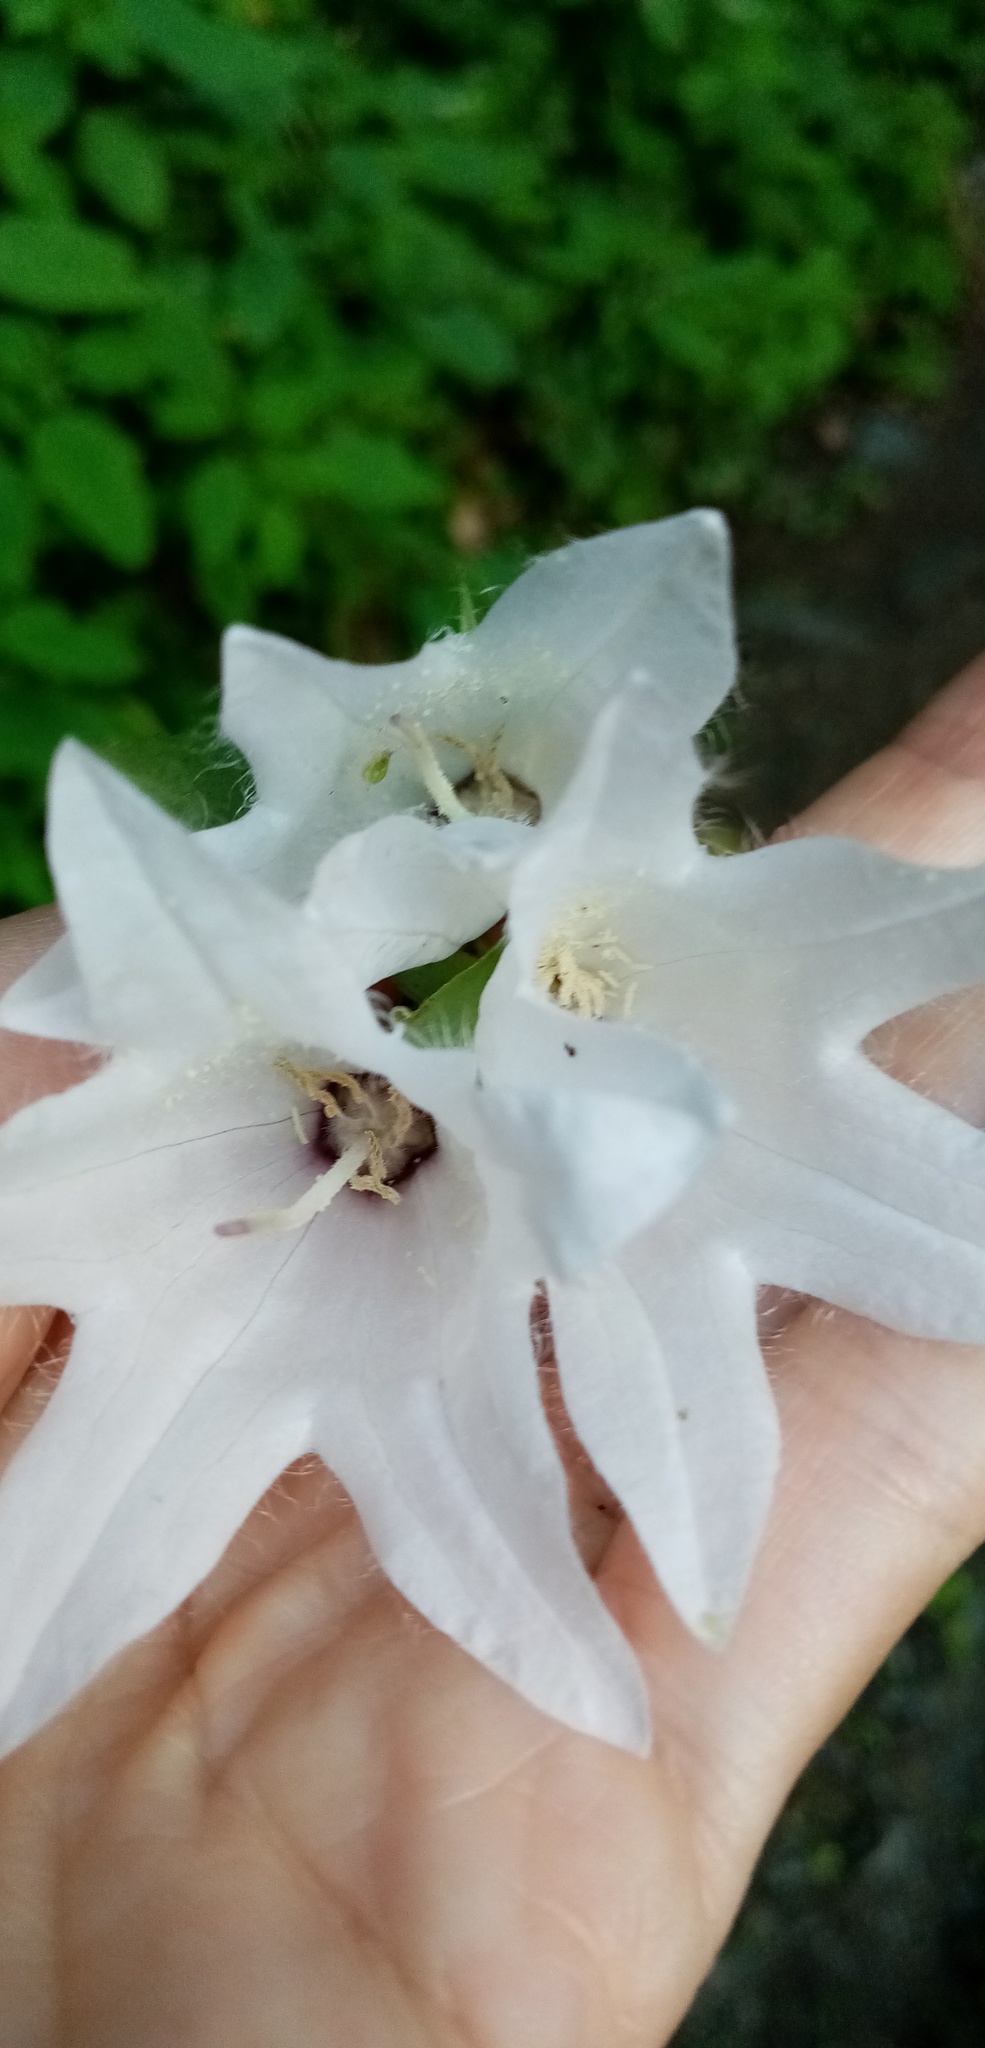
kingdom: Plantae
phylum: Tracheophyta
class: Magnoliopsida
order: Asterales
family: Campanulaceae
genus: Campanula
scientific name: Campanula trachelium
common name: Nettle-leaved bellflower
